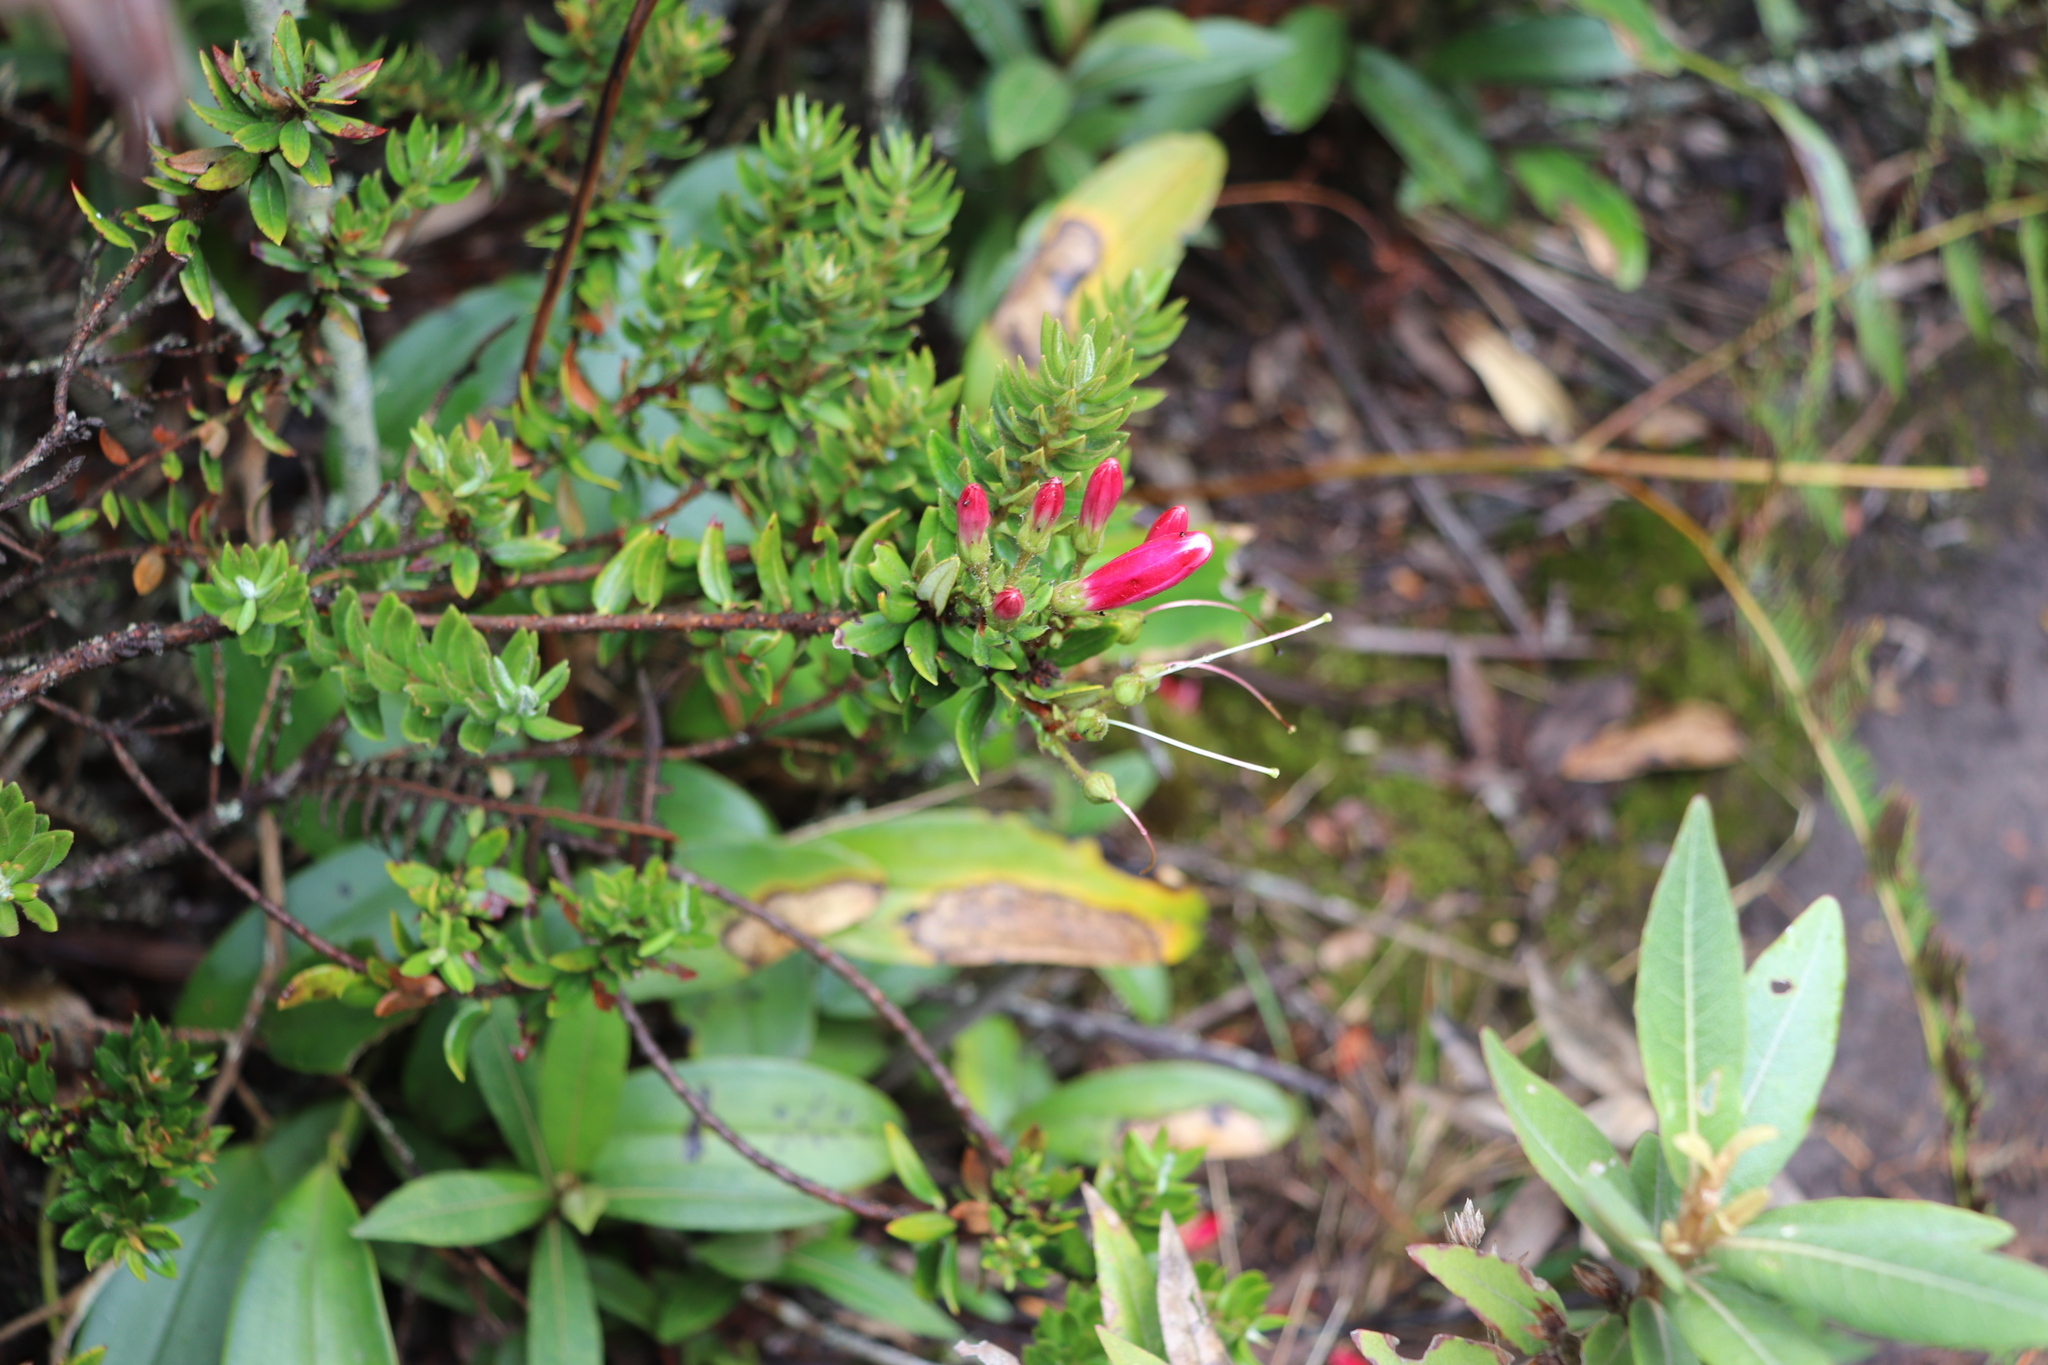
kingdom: Plantae
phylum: Tracheophyta
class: Magnoliopsida
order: Ericales
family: Ericaceae
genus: Bejaria
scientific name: Bejaria resinosa
